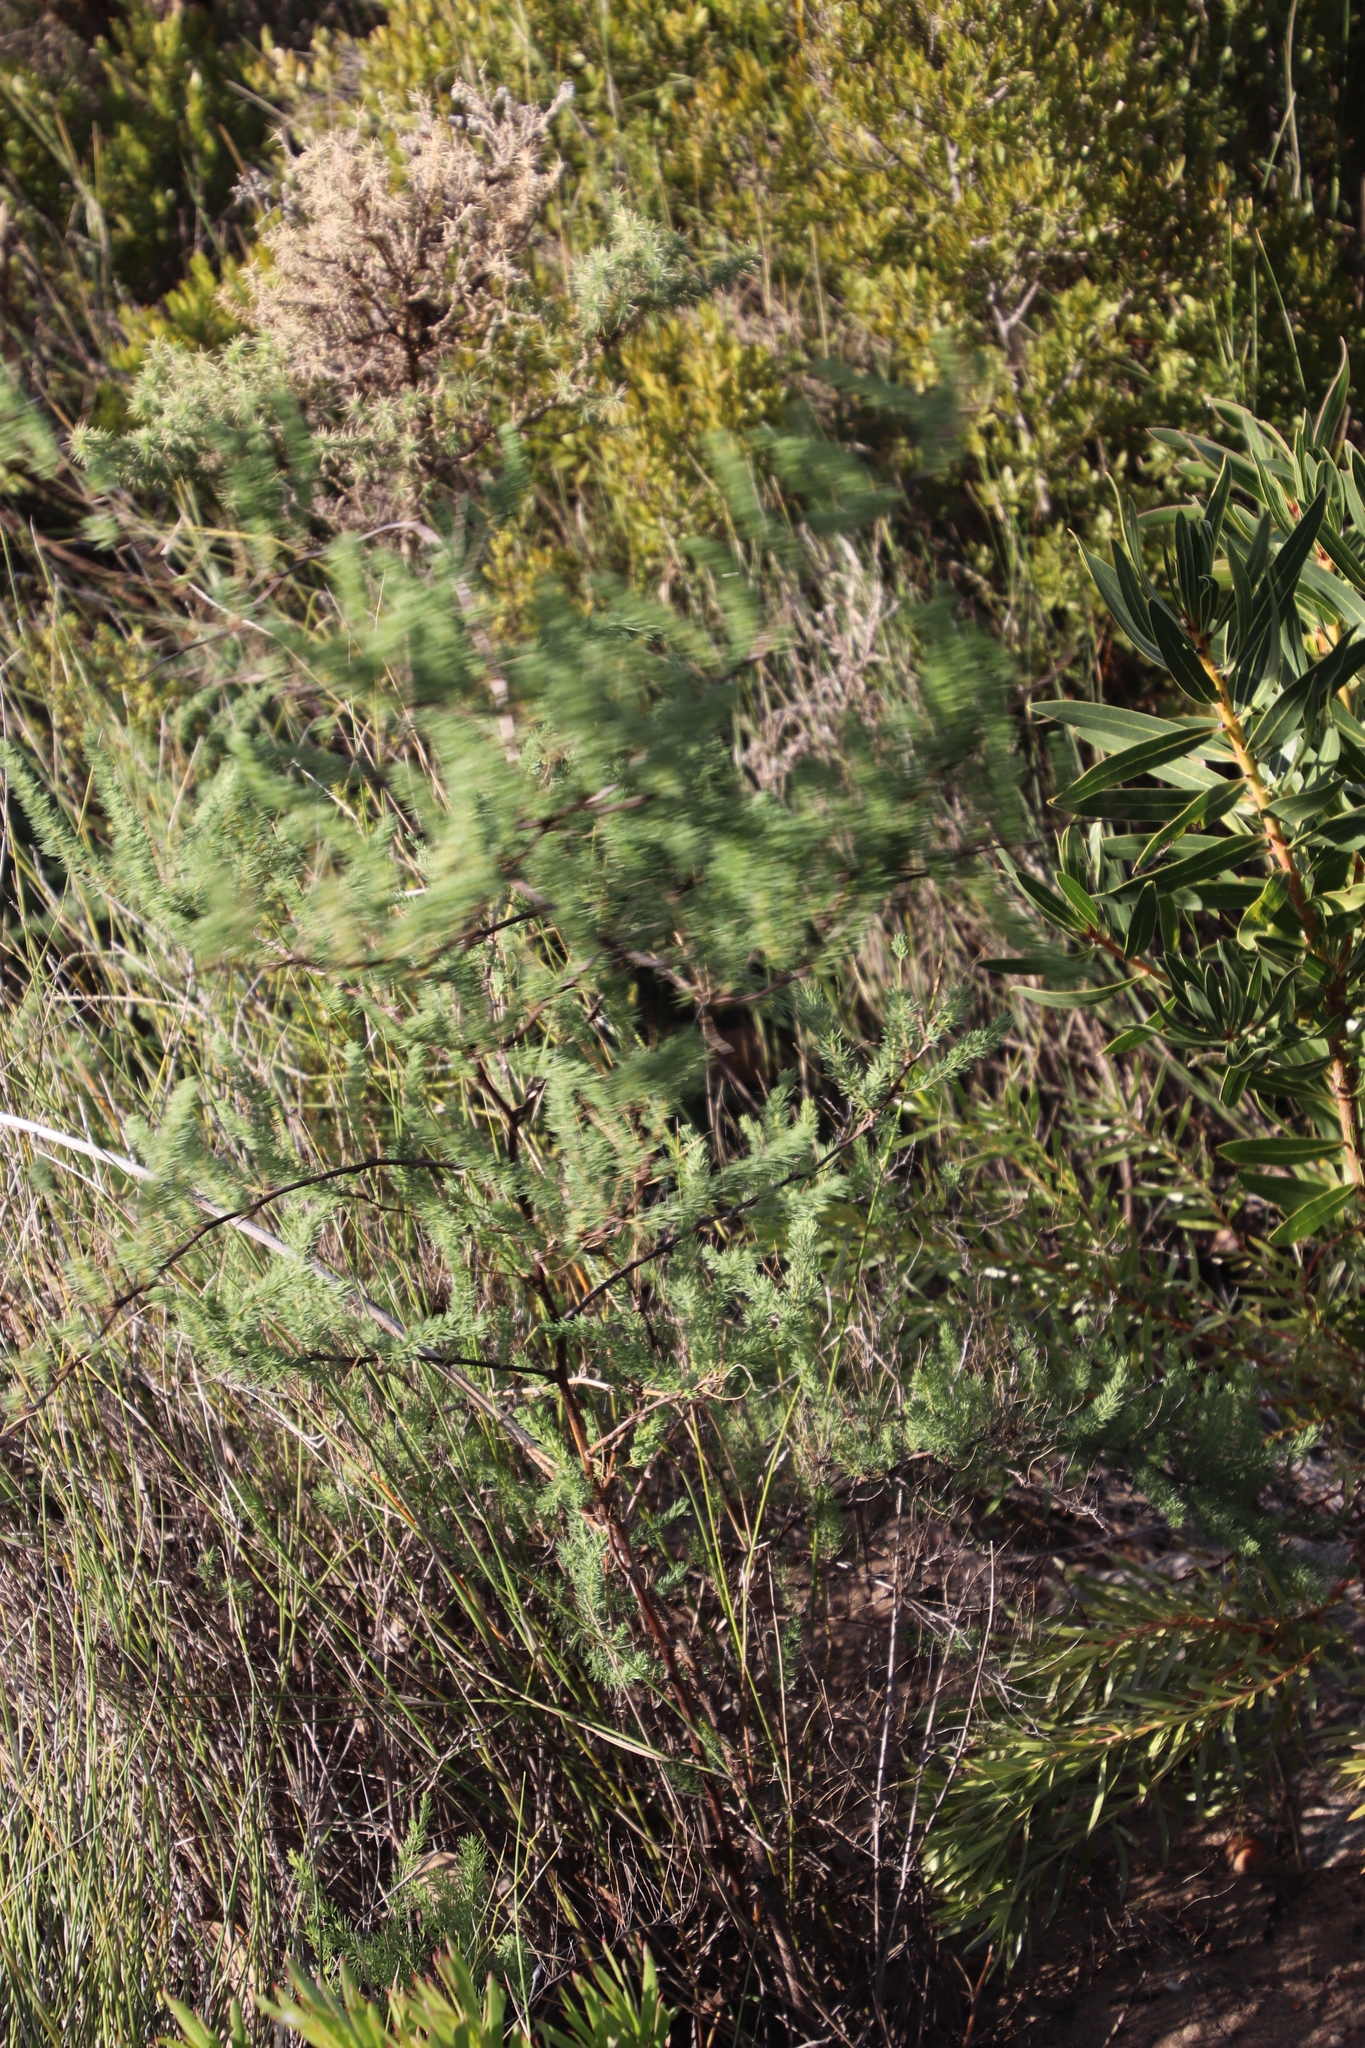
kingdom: Plantae
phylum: Tracheophyta
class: Liliopsida
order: Asparagales
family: Asparagaceae
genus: Asparagus
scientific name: Asparagus rubicundus
